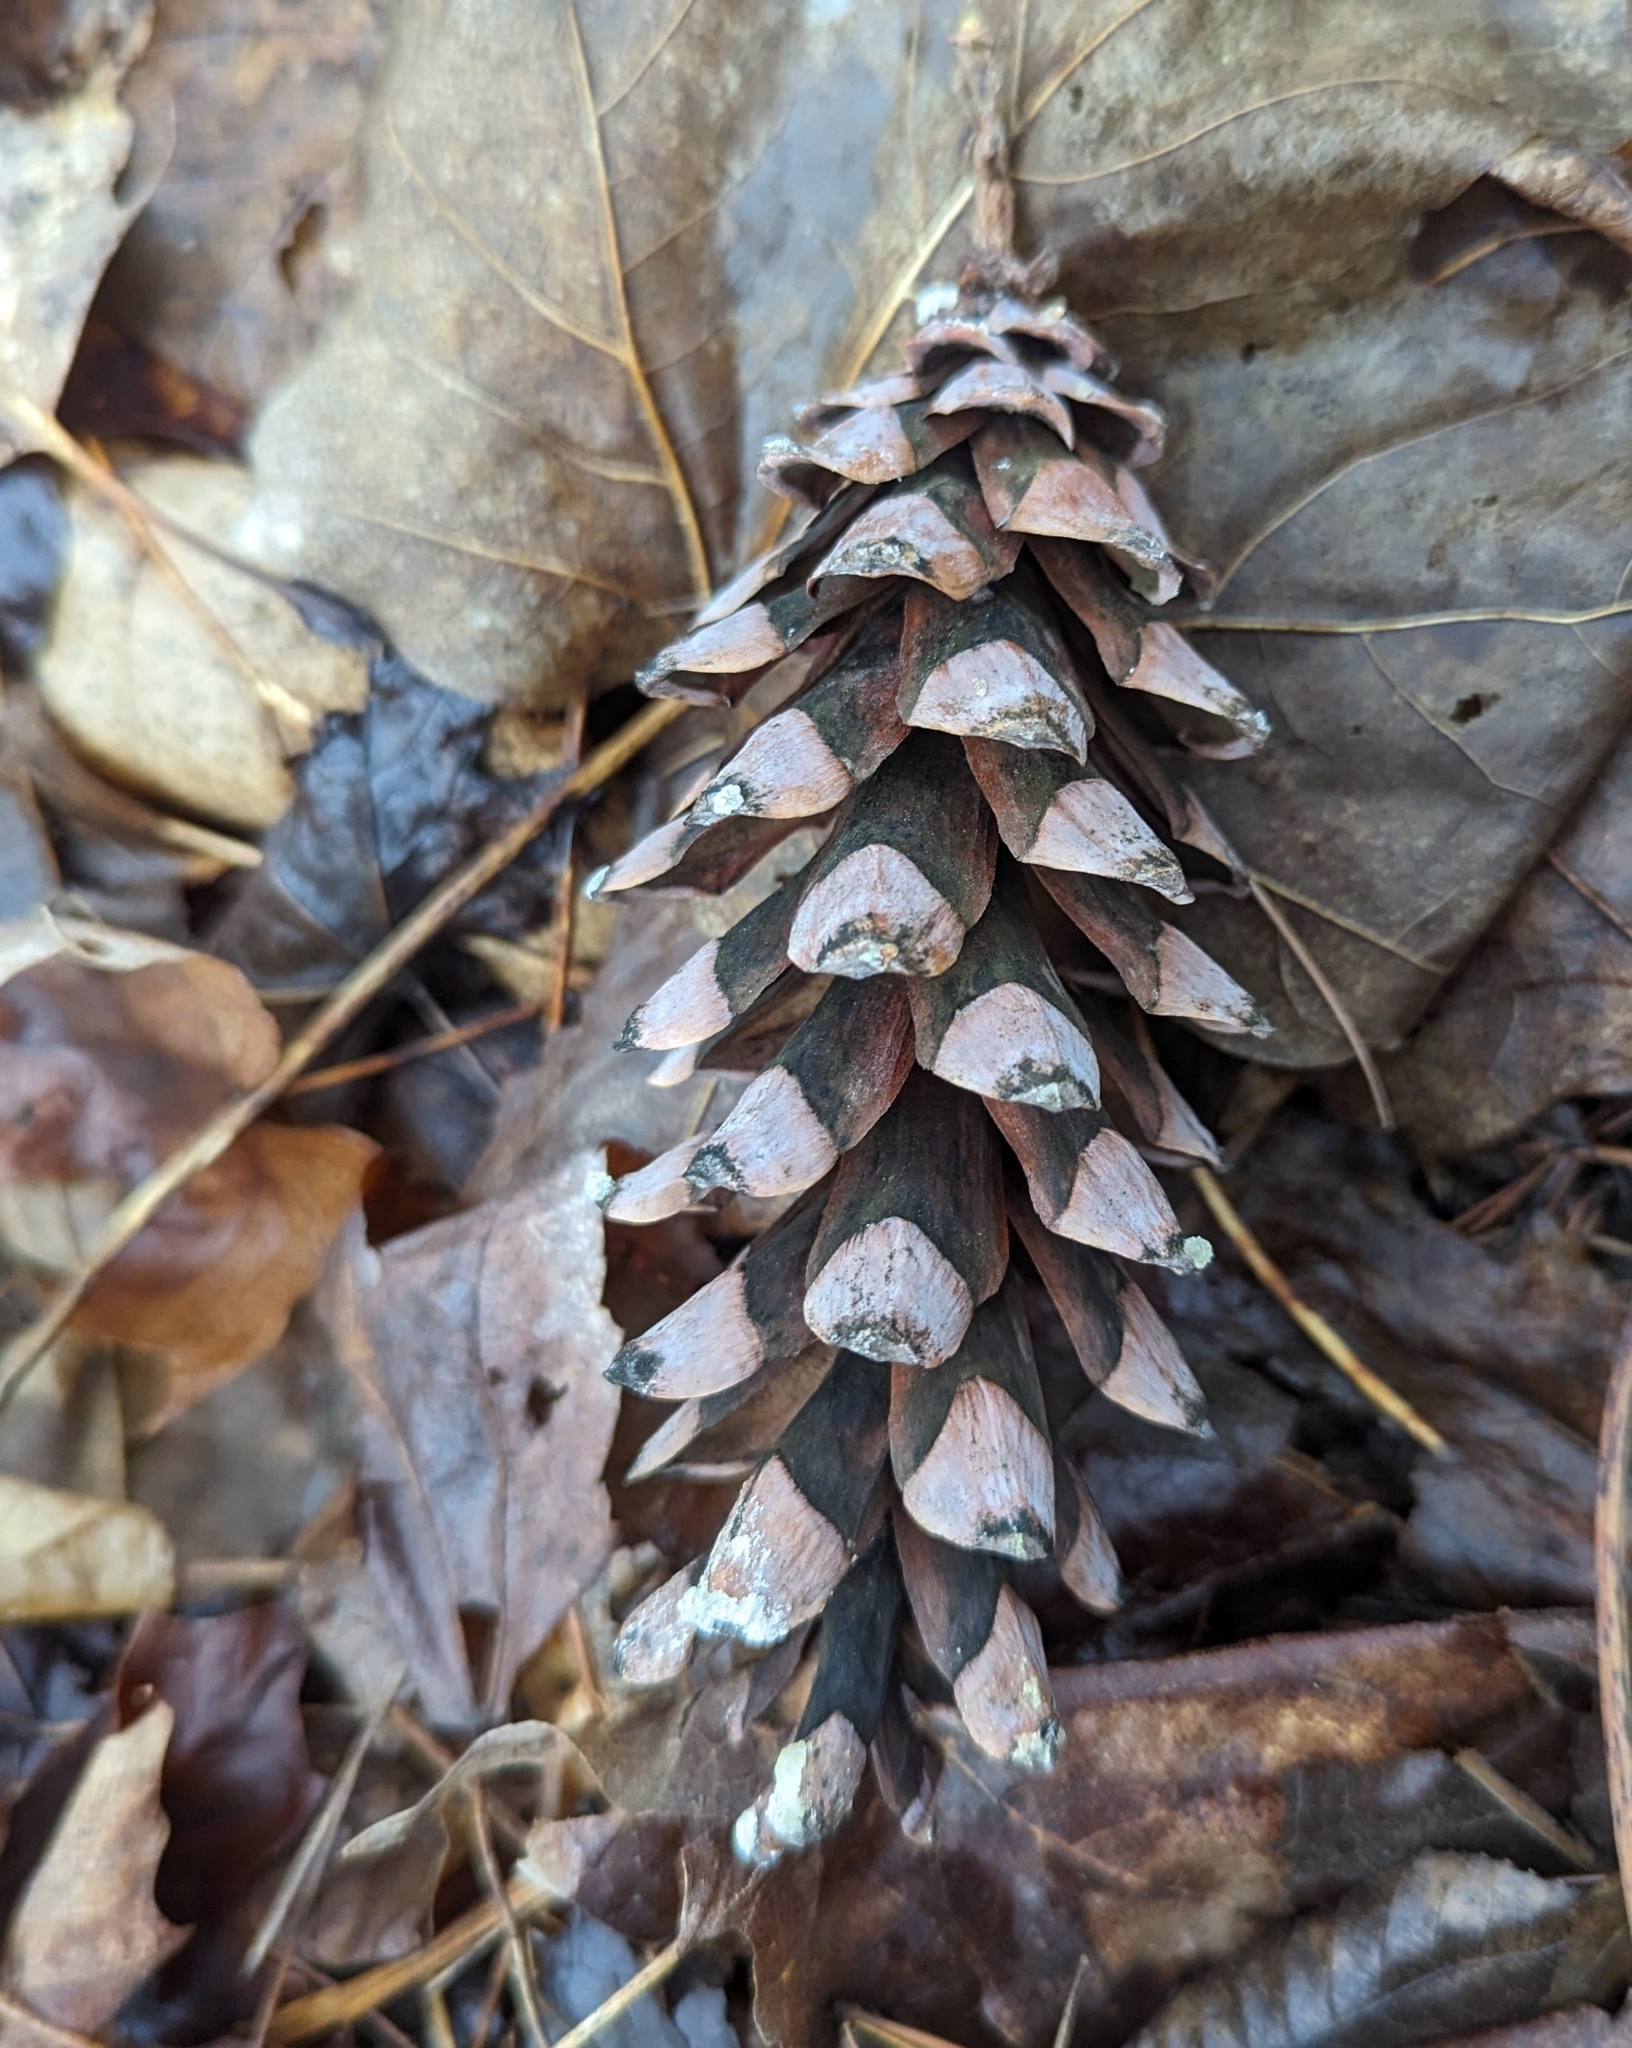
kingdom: Plantae
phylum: Tracheophyta
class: Pinopsida
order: Pinales
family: Pinaceae
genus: Pinus
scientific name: Pinus strobus
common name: Weymouth pine
